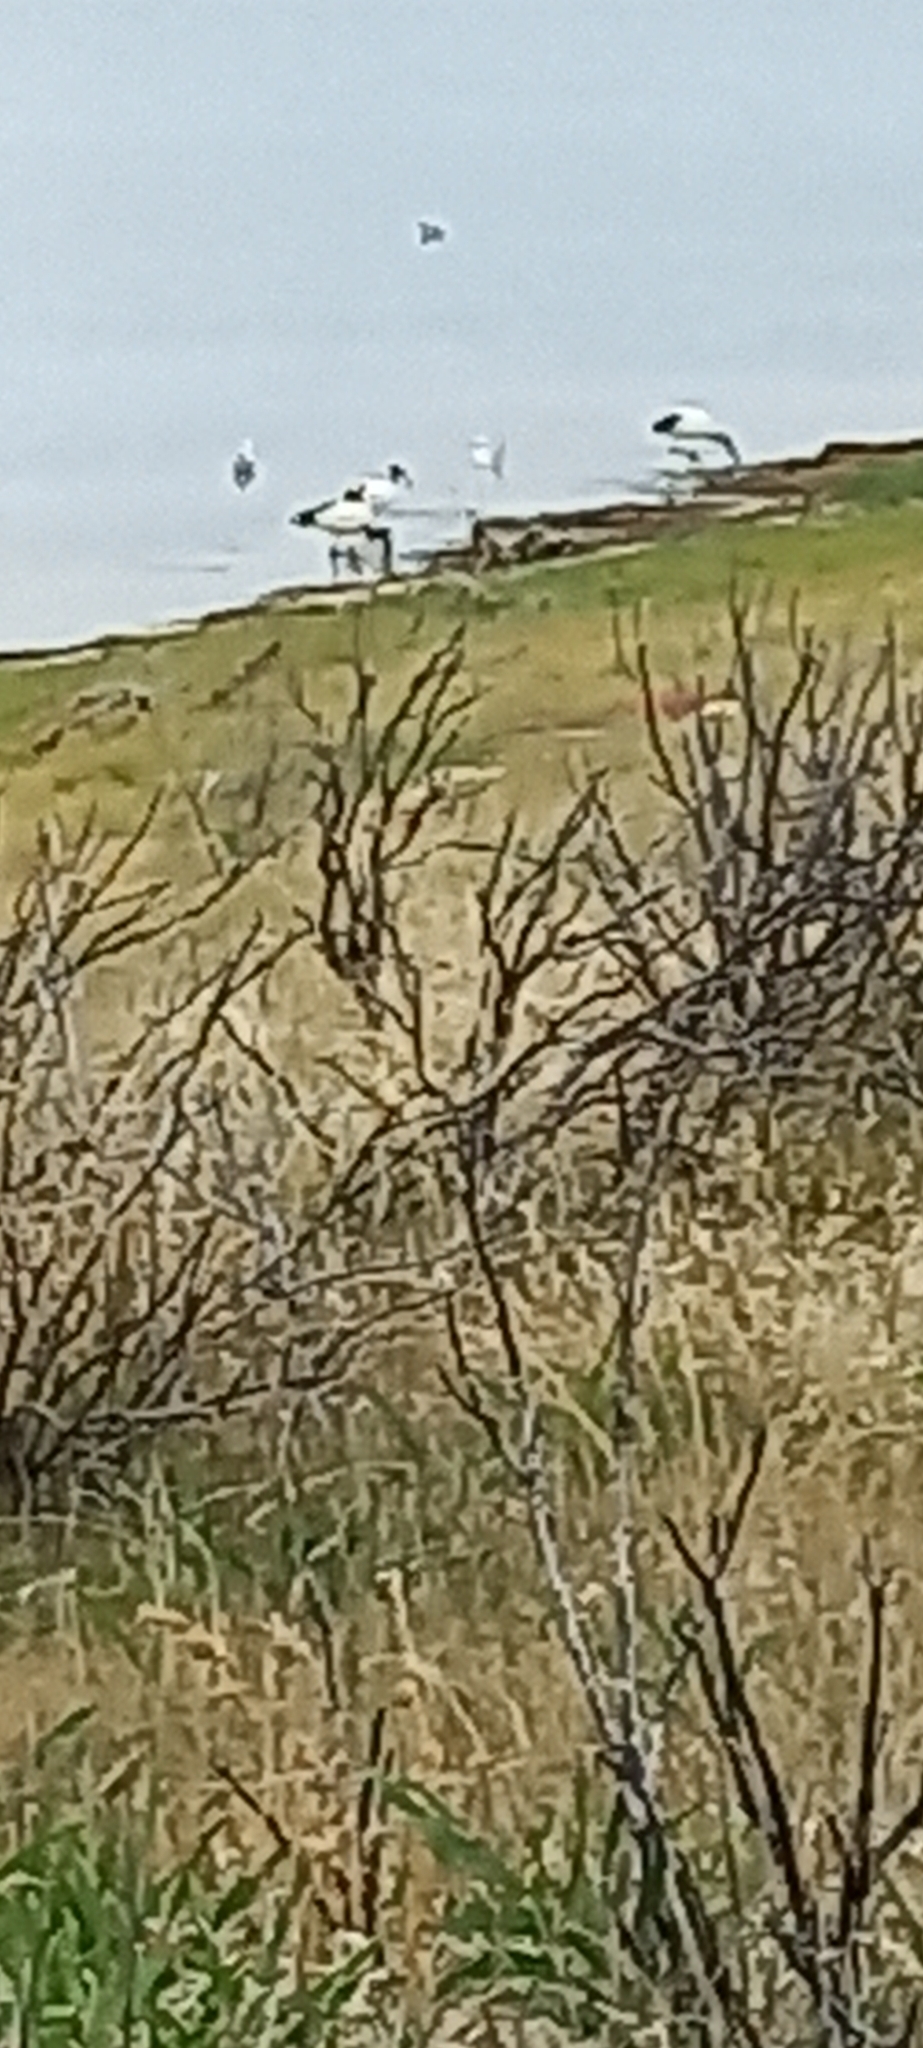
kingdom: Animalia
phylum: Chordata
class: Aves
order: Pelecaniformes
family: Threskiornithidae
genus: Threskiornis
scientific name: Threskiornis aethiopicus
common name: Sacred ibis
